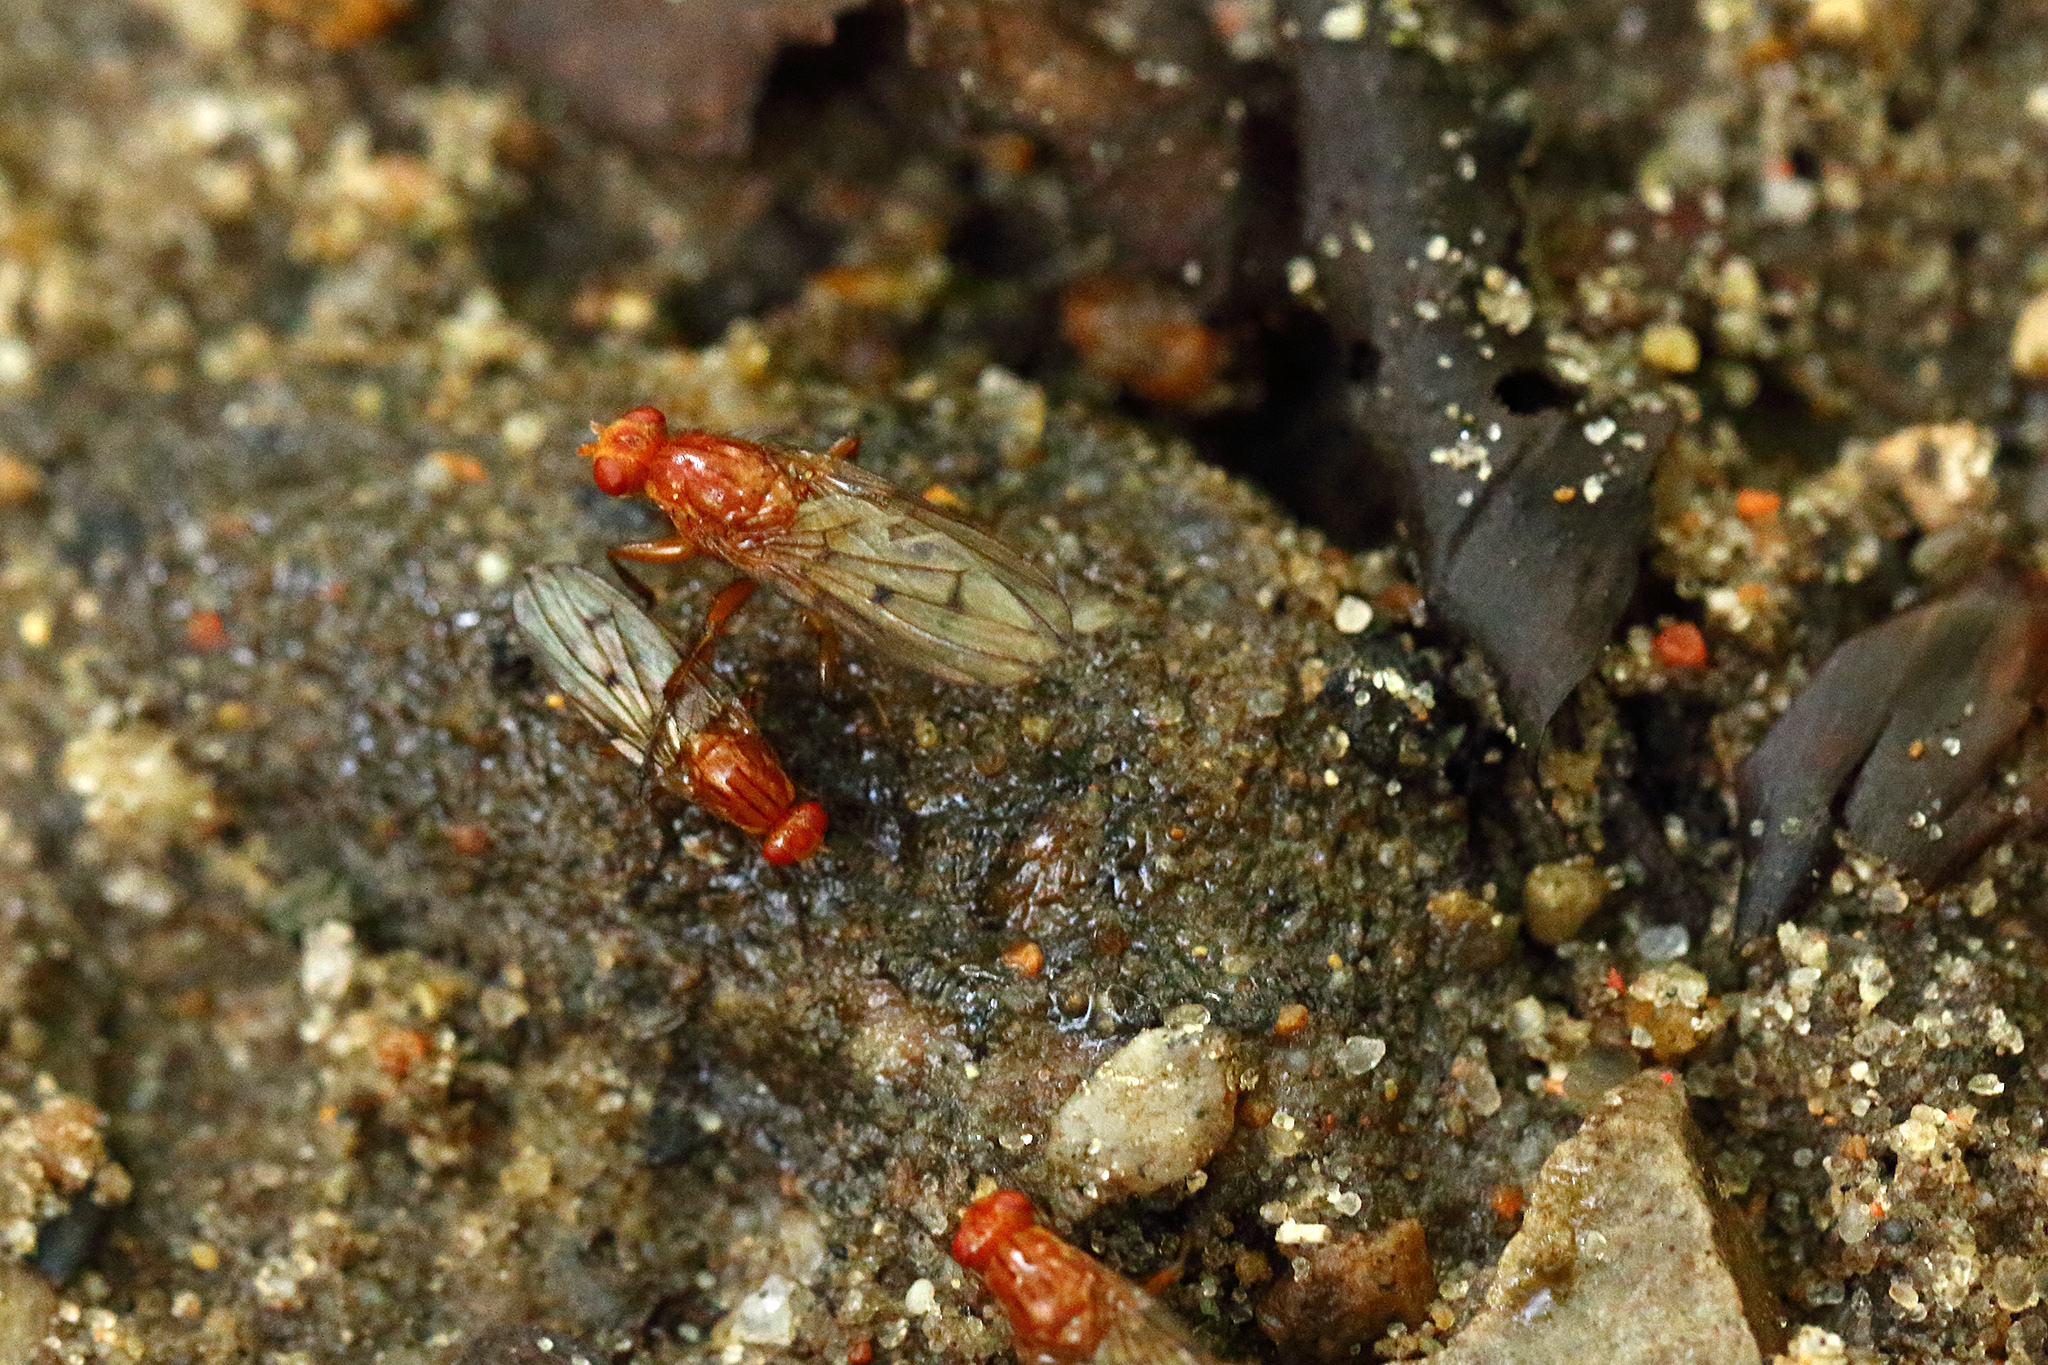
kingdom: Animalia
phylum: Arthropoda
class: Insecta
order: Diptera
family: Dryomyzidae
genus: Dryomyza
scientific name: Dryomyza anilis
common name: Marsh fly
